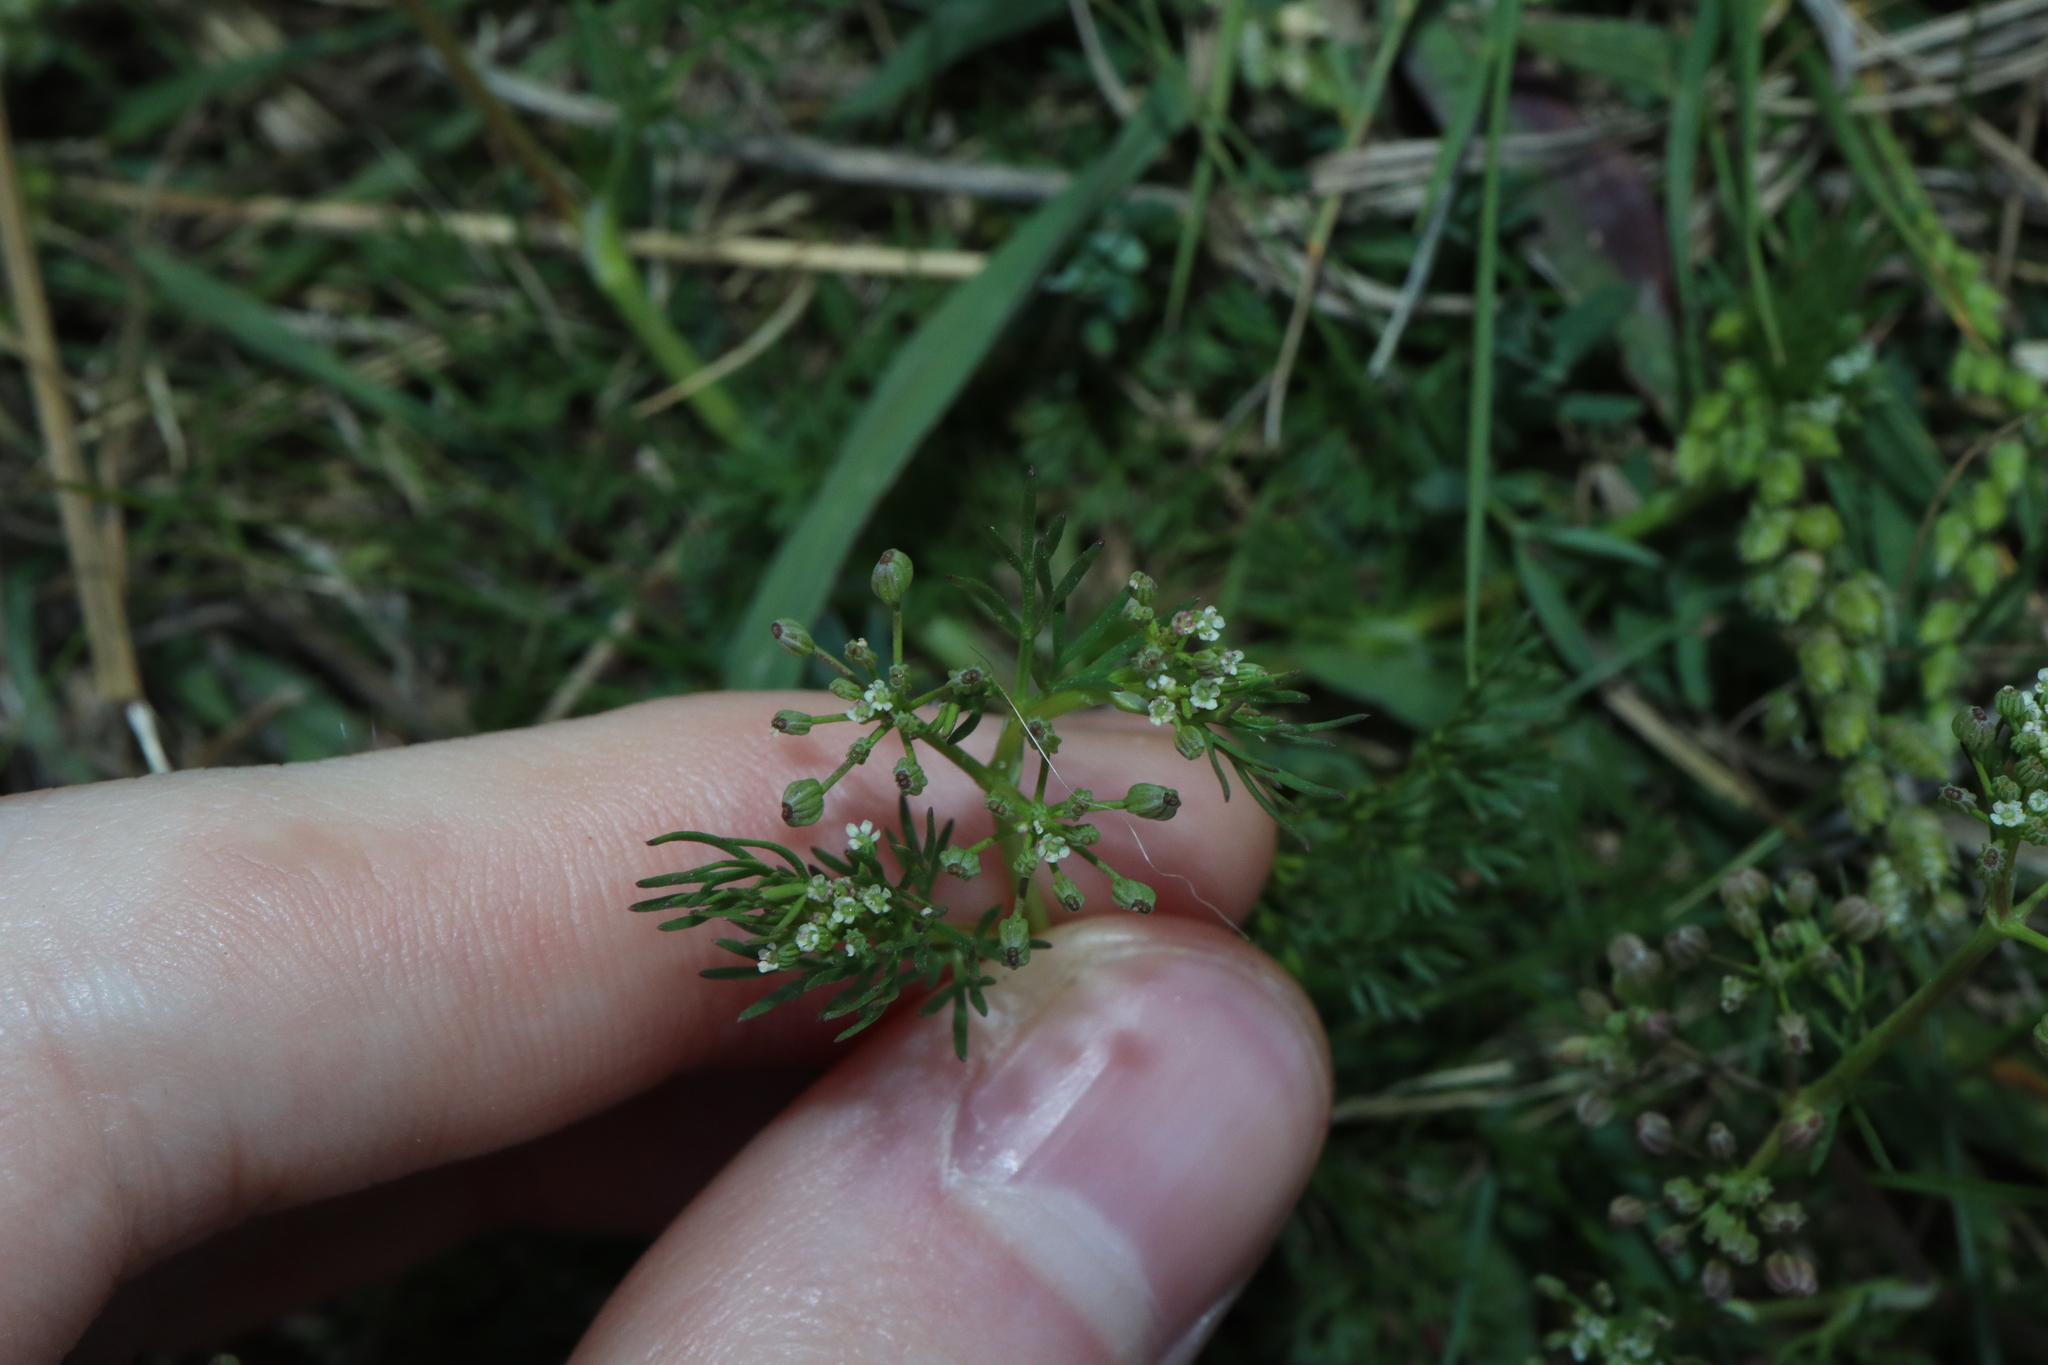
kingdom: Plantae
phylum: Tracheophyta
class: Magnoliopsida
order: Apiales
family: Apiaceae
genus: Cyclospermum
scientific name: Cyclospermum leptophyllum
